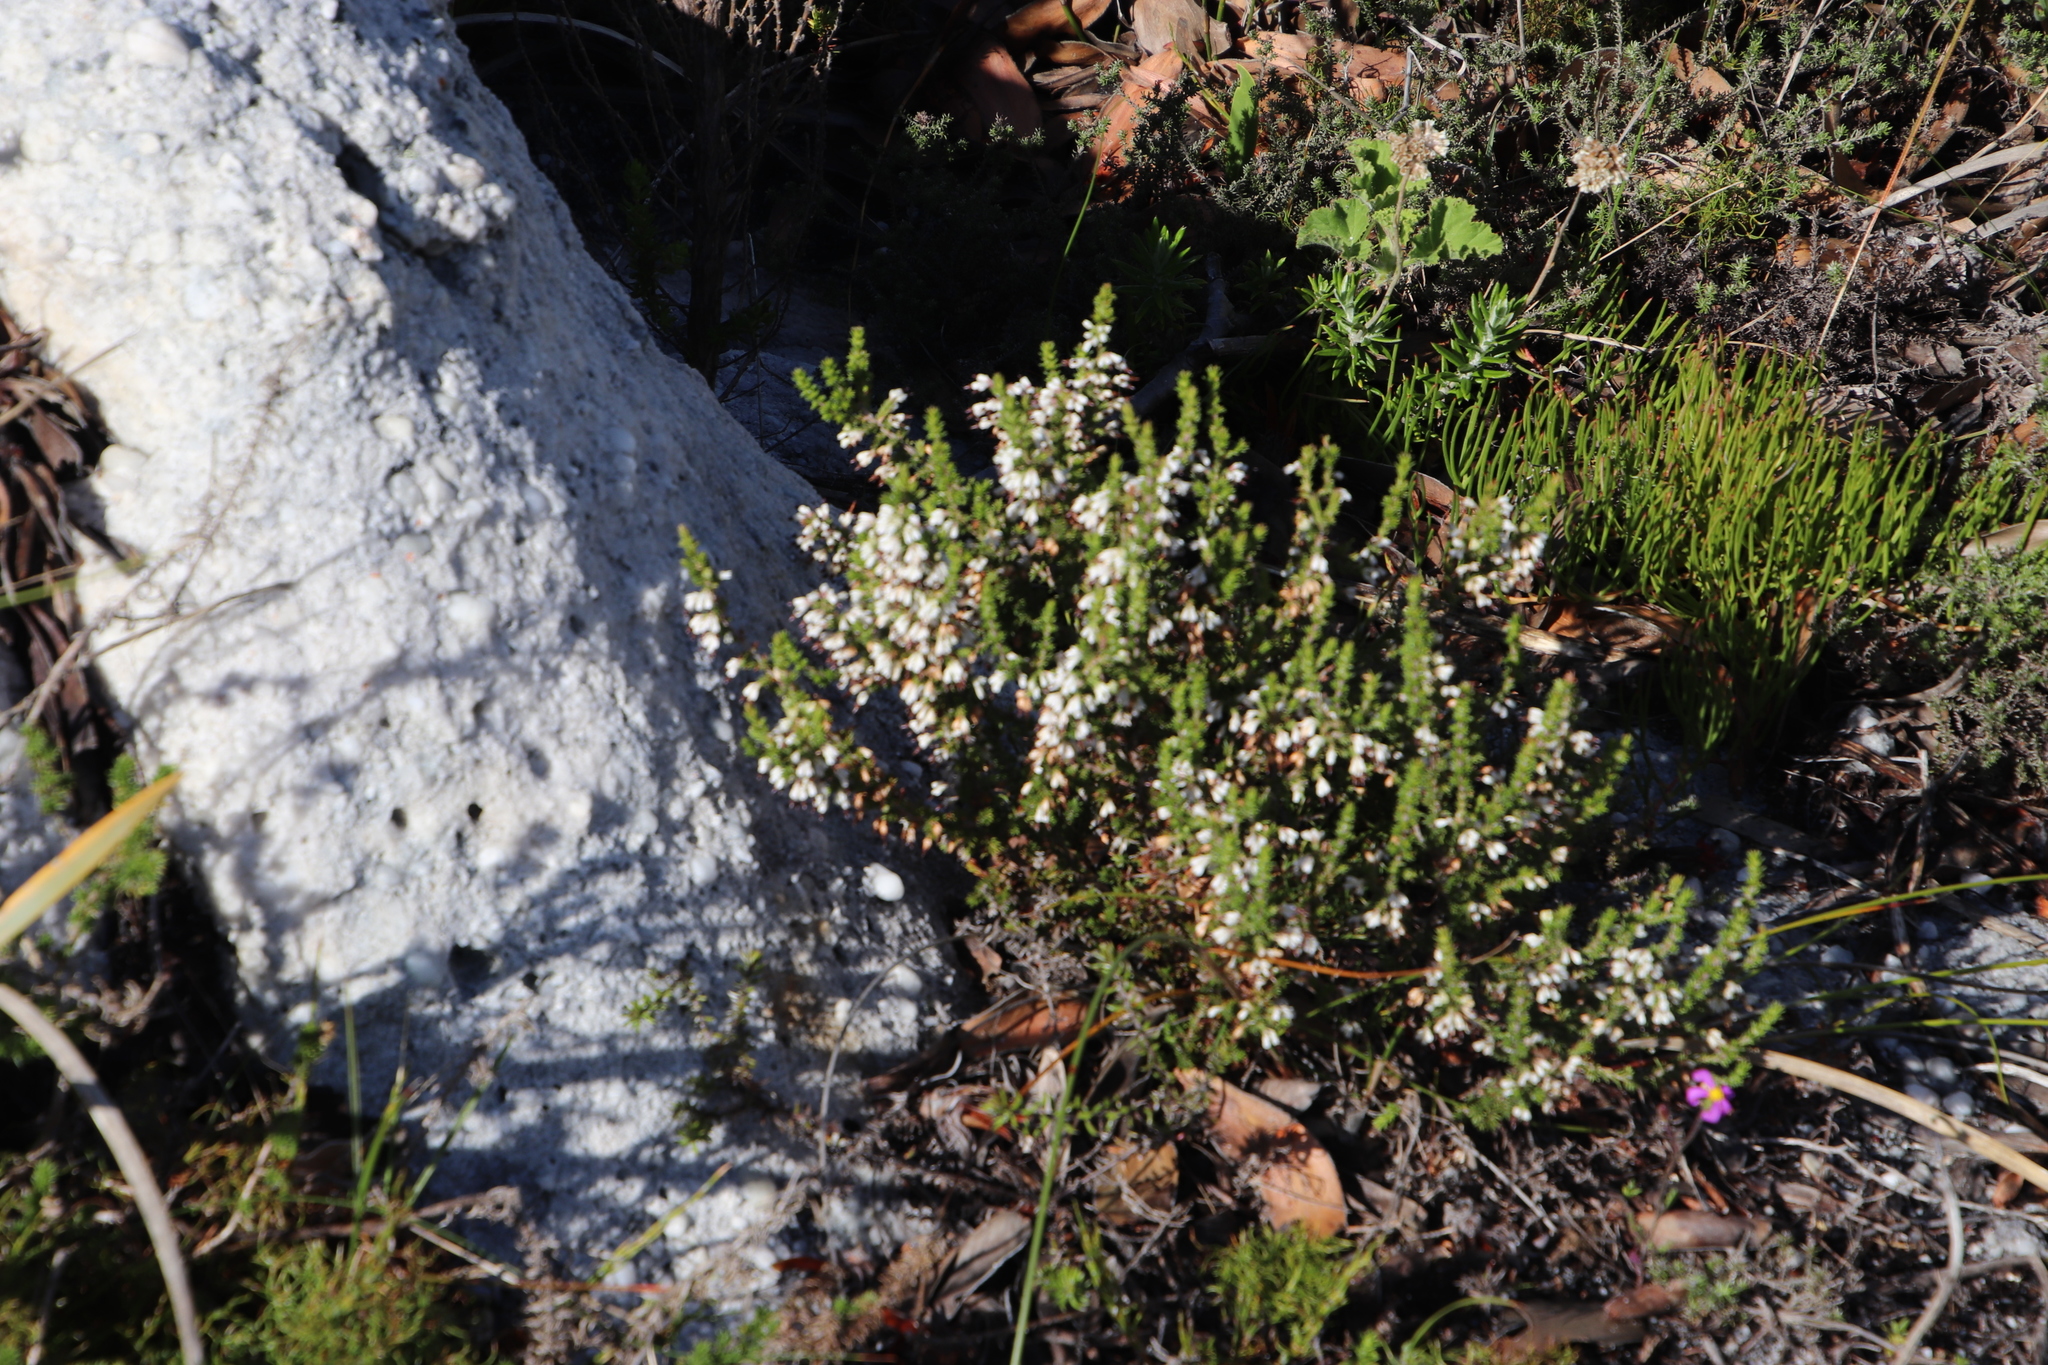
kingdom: Plantae
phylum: Tracheophyta
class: Magnoliopsida
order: Ericales
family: Ericaceae
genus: Erica
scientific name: Erica imbricata
